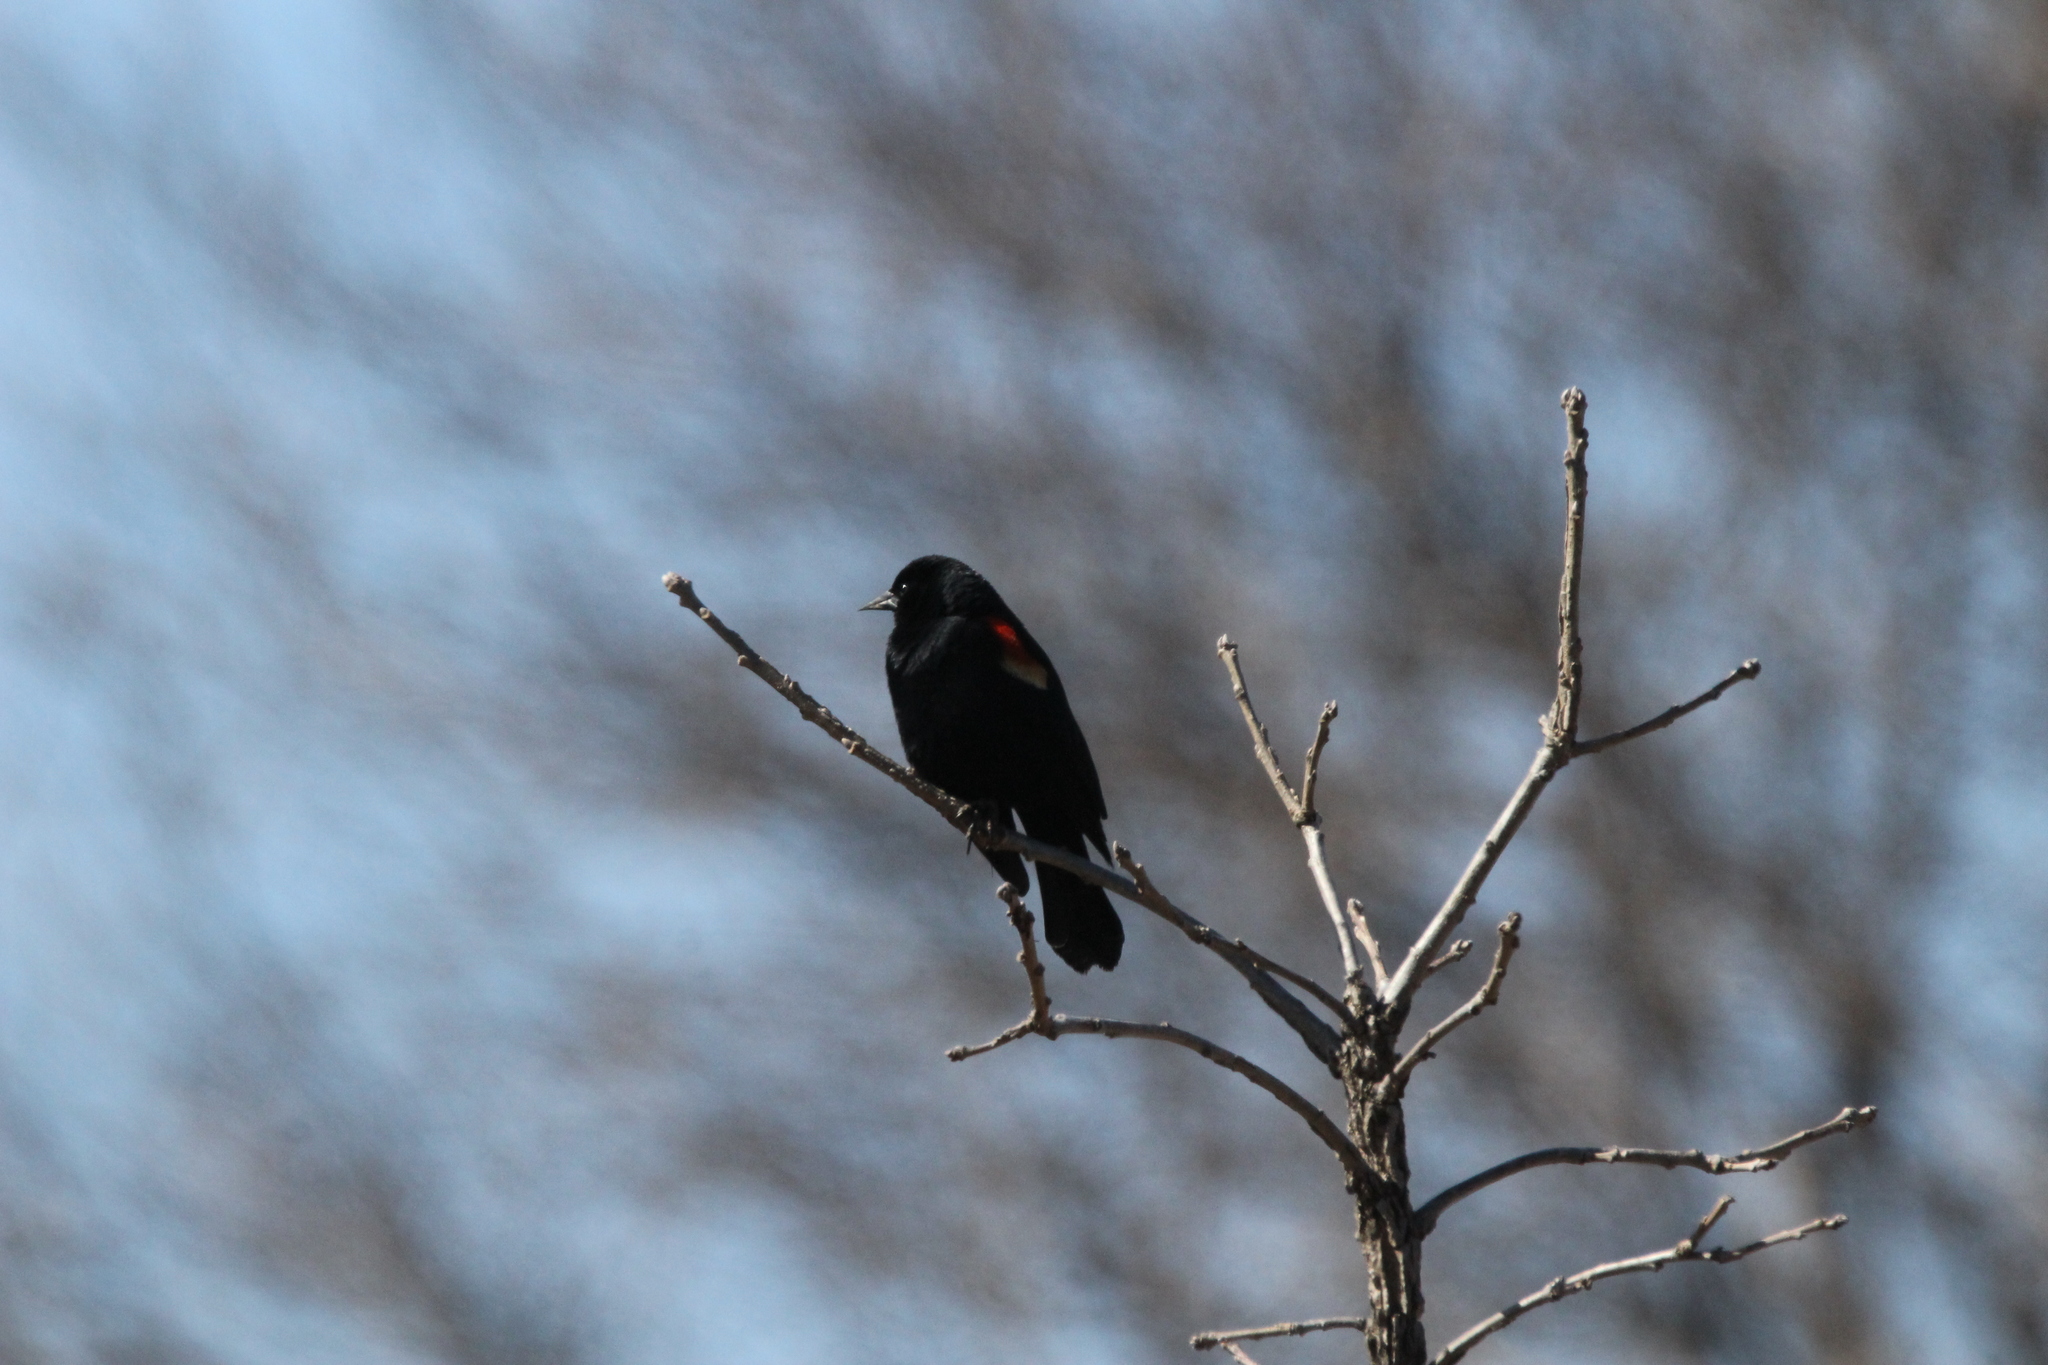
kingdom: Animalia
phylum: Chordata
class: Aves
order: Passeriformes
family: Icteridae
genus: Agelaius
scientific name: Agelaius phoeniceus
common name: Red-winged blackbird
